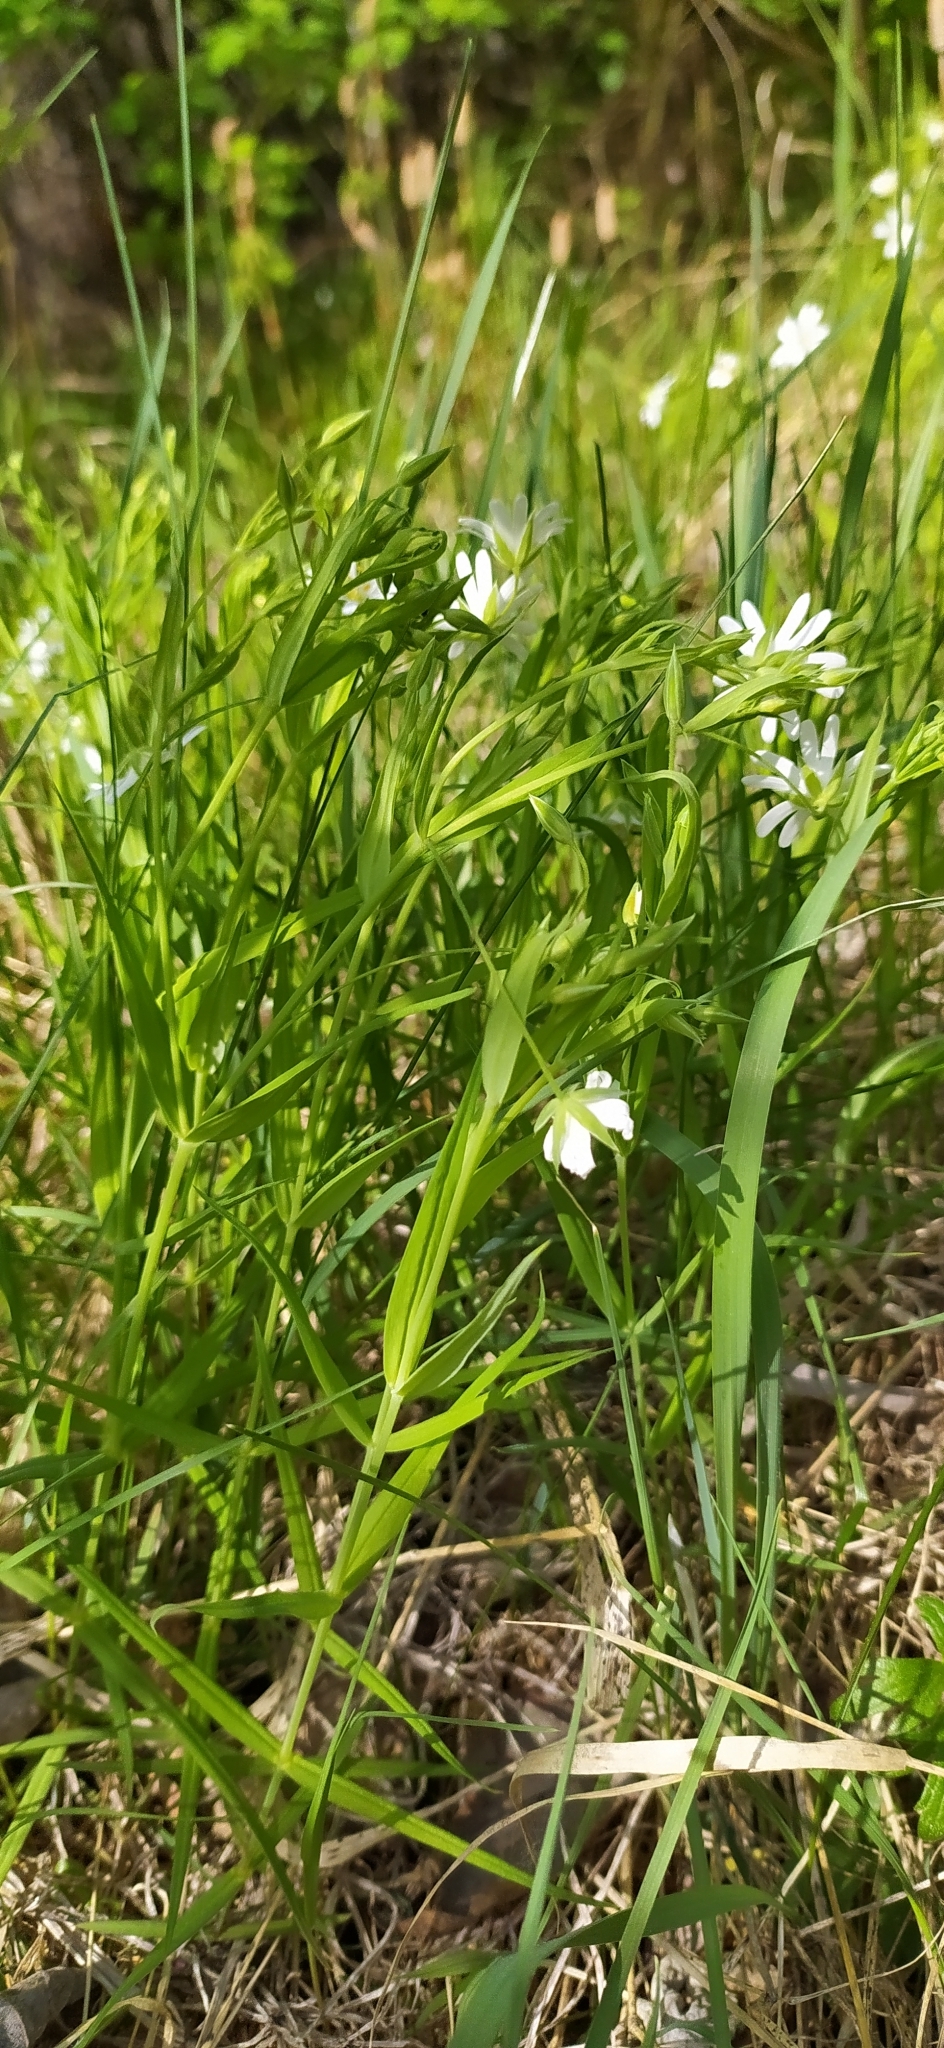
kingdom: Plantae
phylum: Tracheophyta
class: Magnoliopsida
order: Caryophyllales
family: Caryophyllaceae
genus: Rabelera
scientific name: Rabelera holostea
